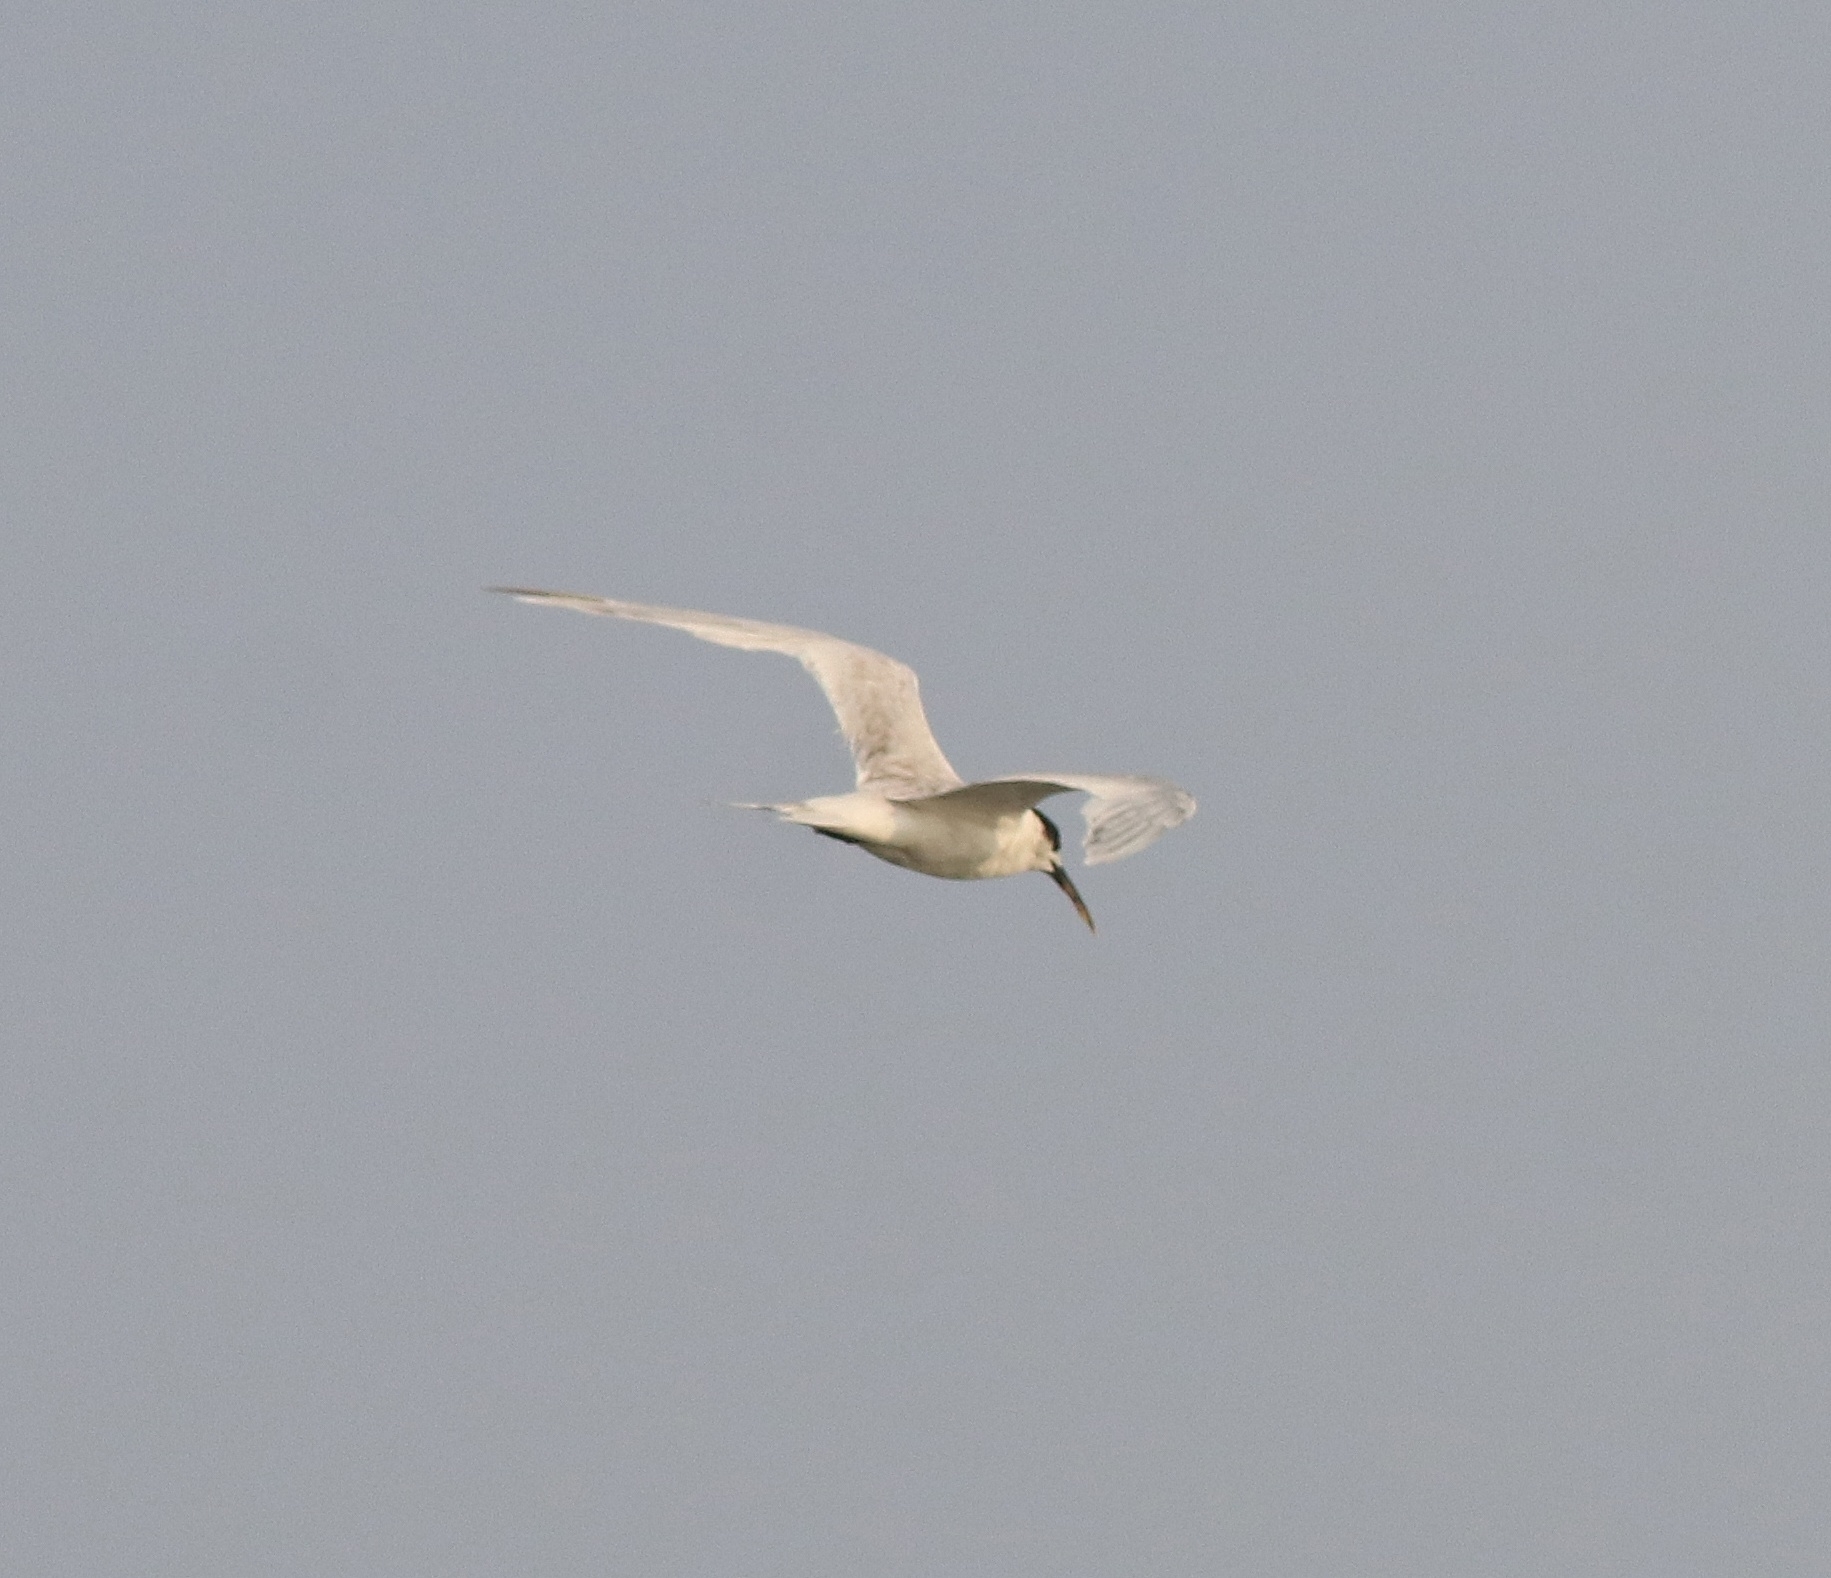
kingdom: Animalia
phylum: Chordata
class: Aves
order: Charadriiformes
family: Laridae
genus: Thalasseus
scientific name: Thalasseus sandvicensis
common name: Sandwich tern
